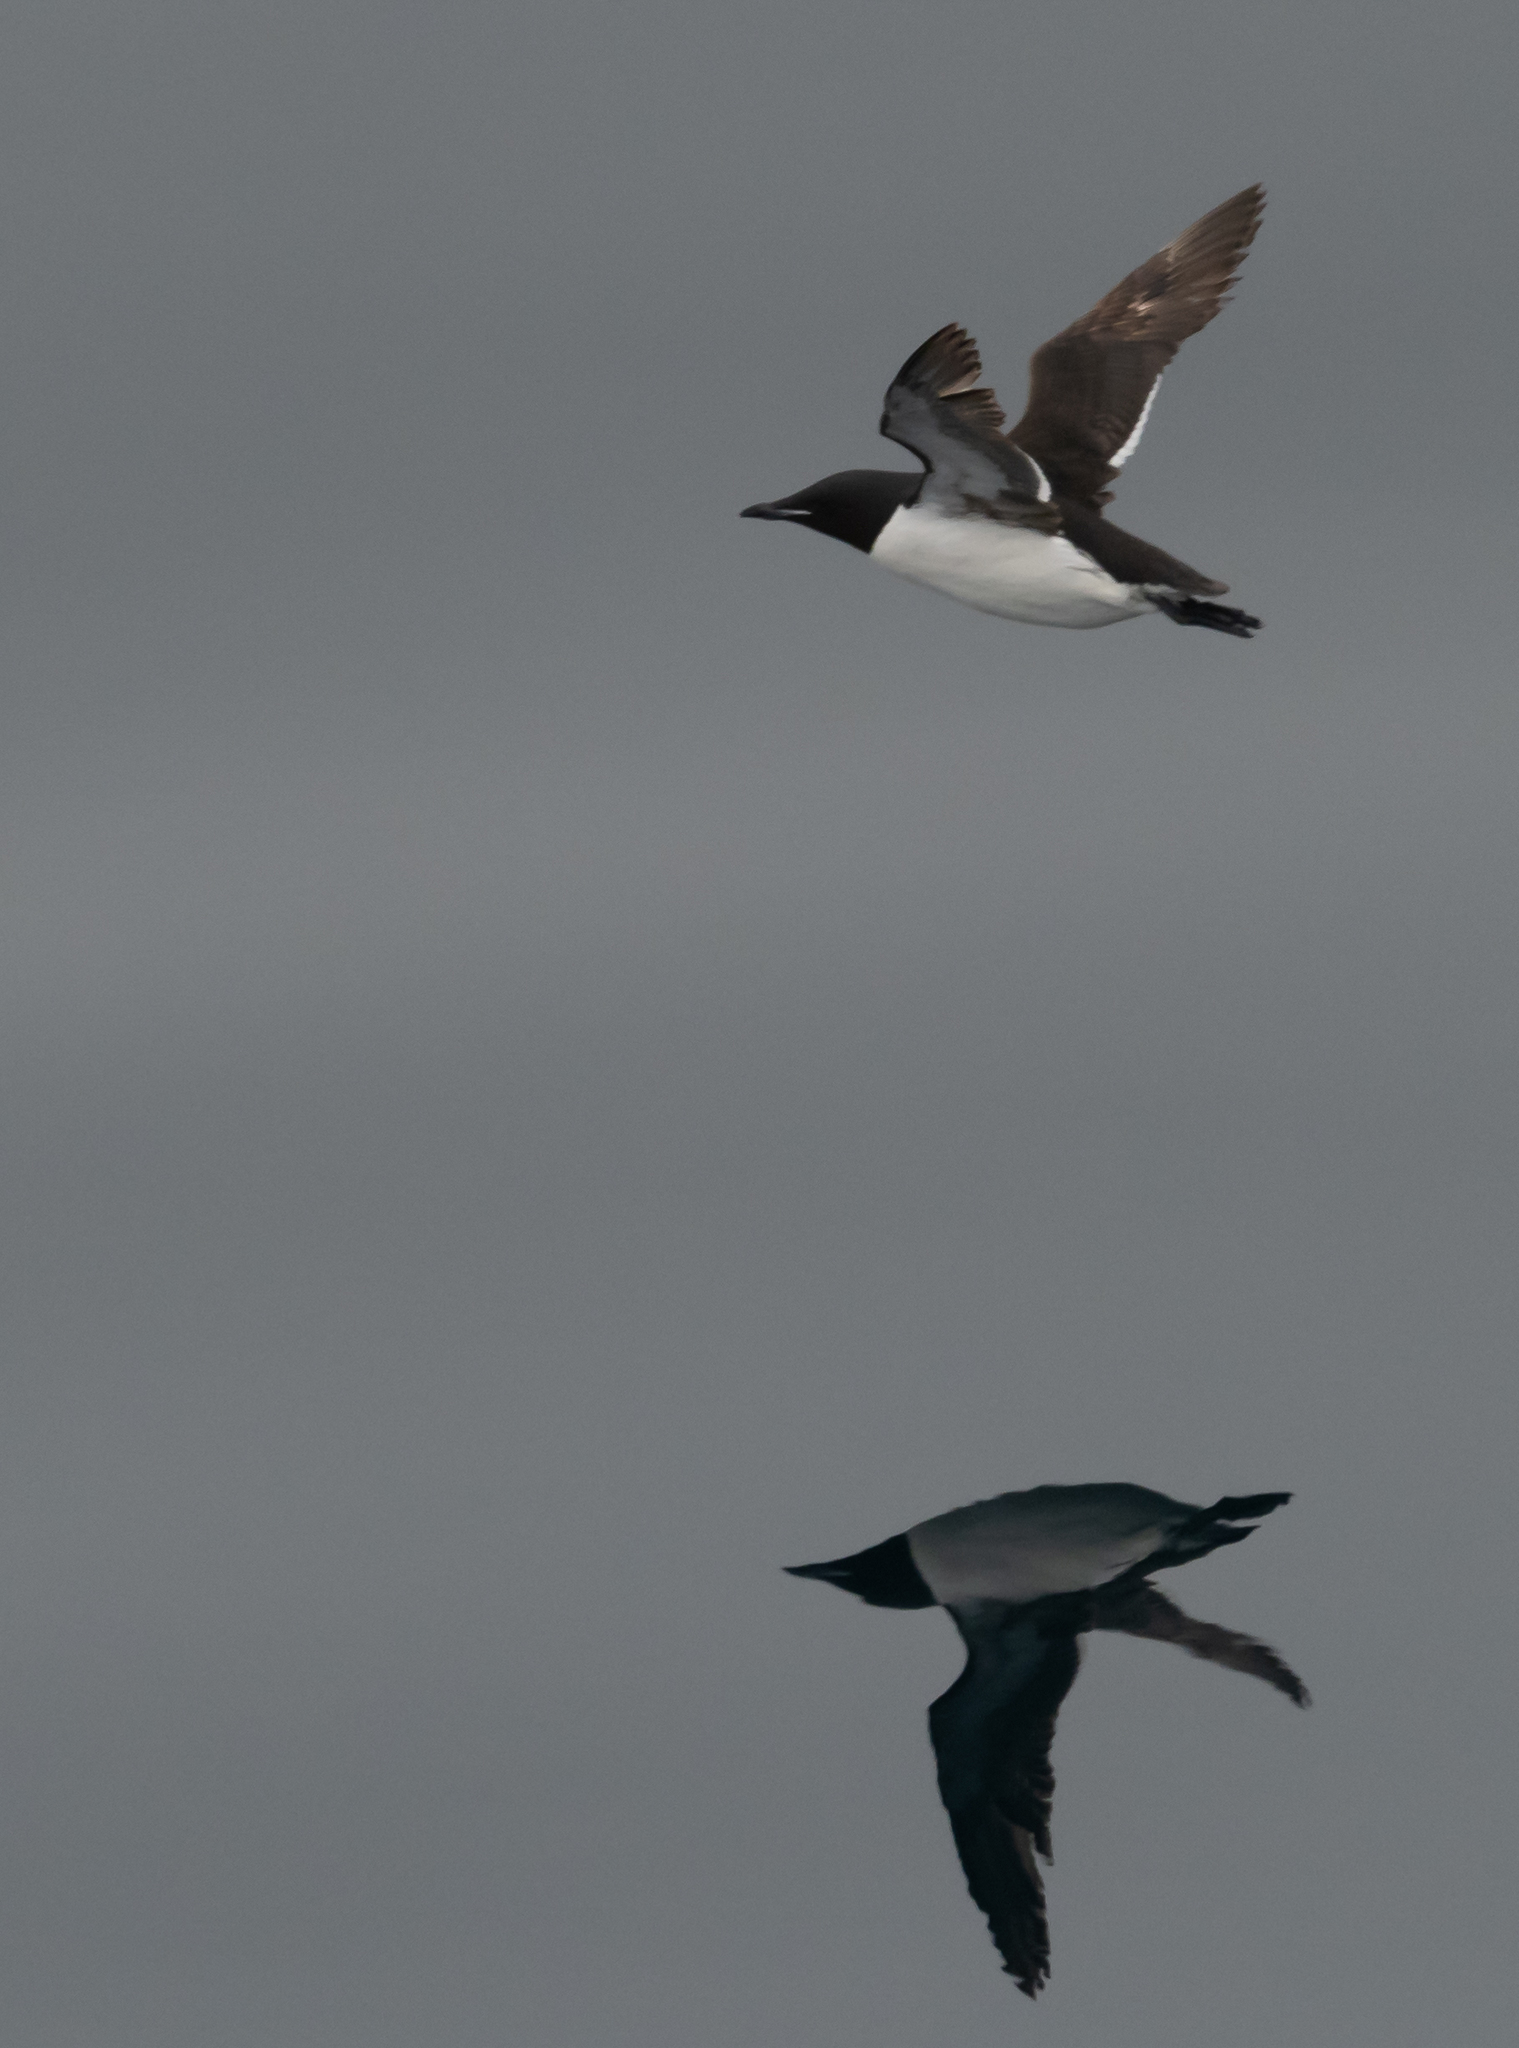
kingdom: Animalia
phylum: Chordata
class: Aves
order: Charadriiformes
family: Alcidae
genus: Uria
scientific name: Uria lomvia
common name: Thick-billed murre
